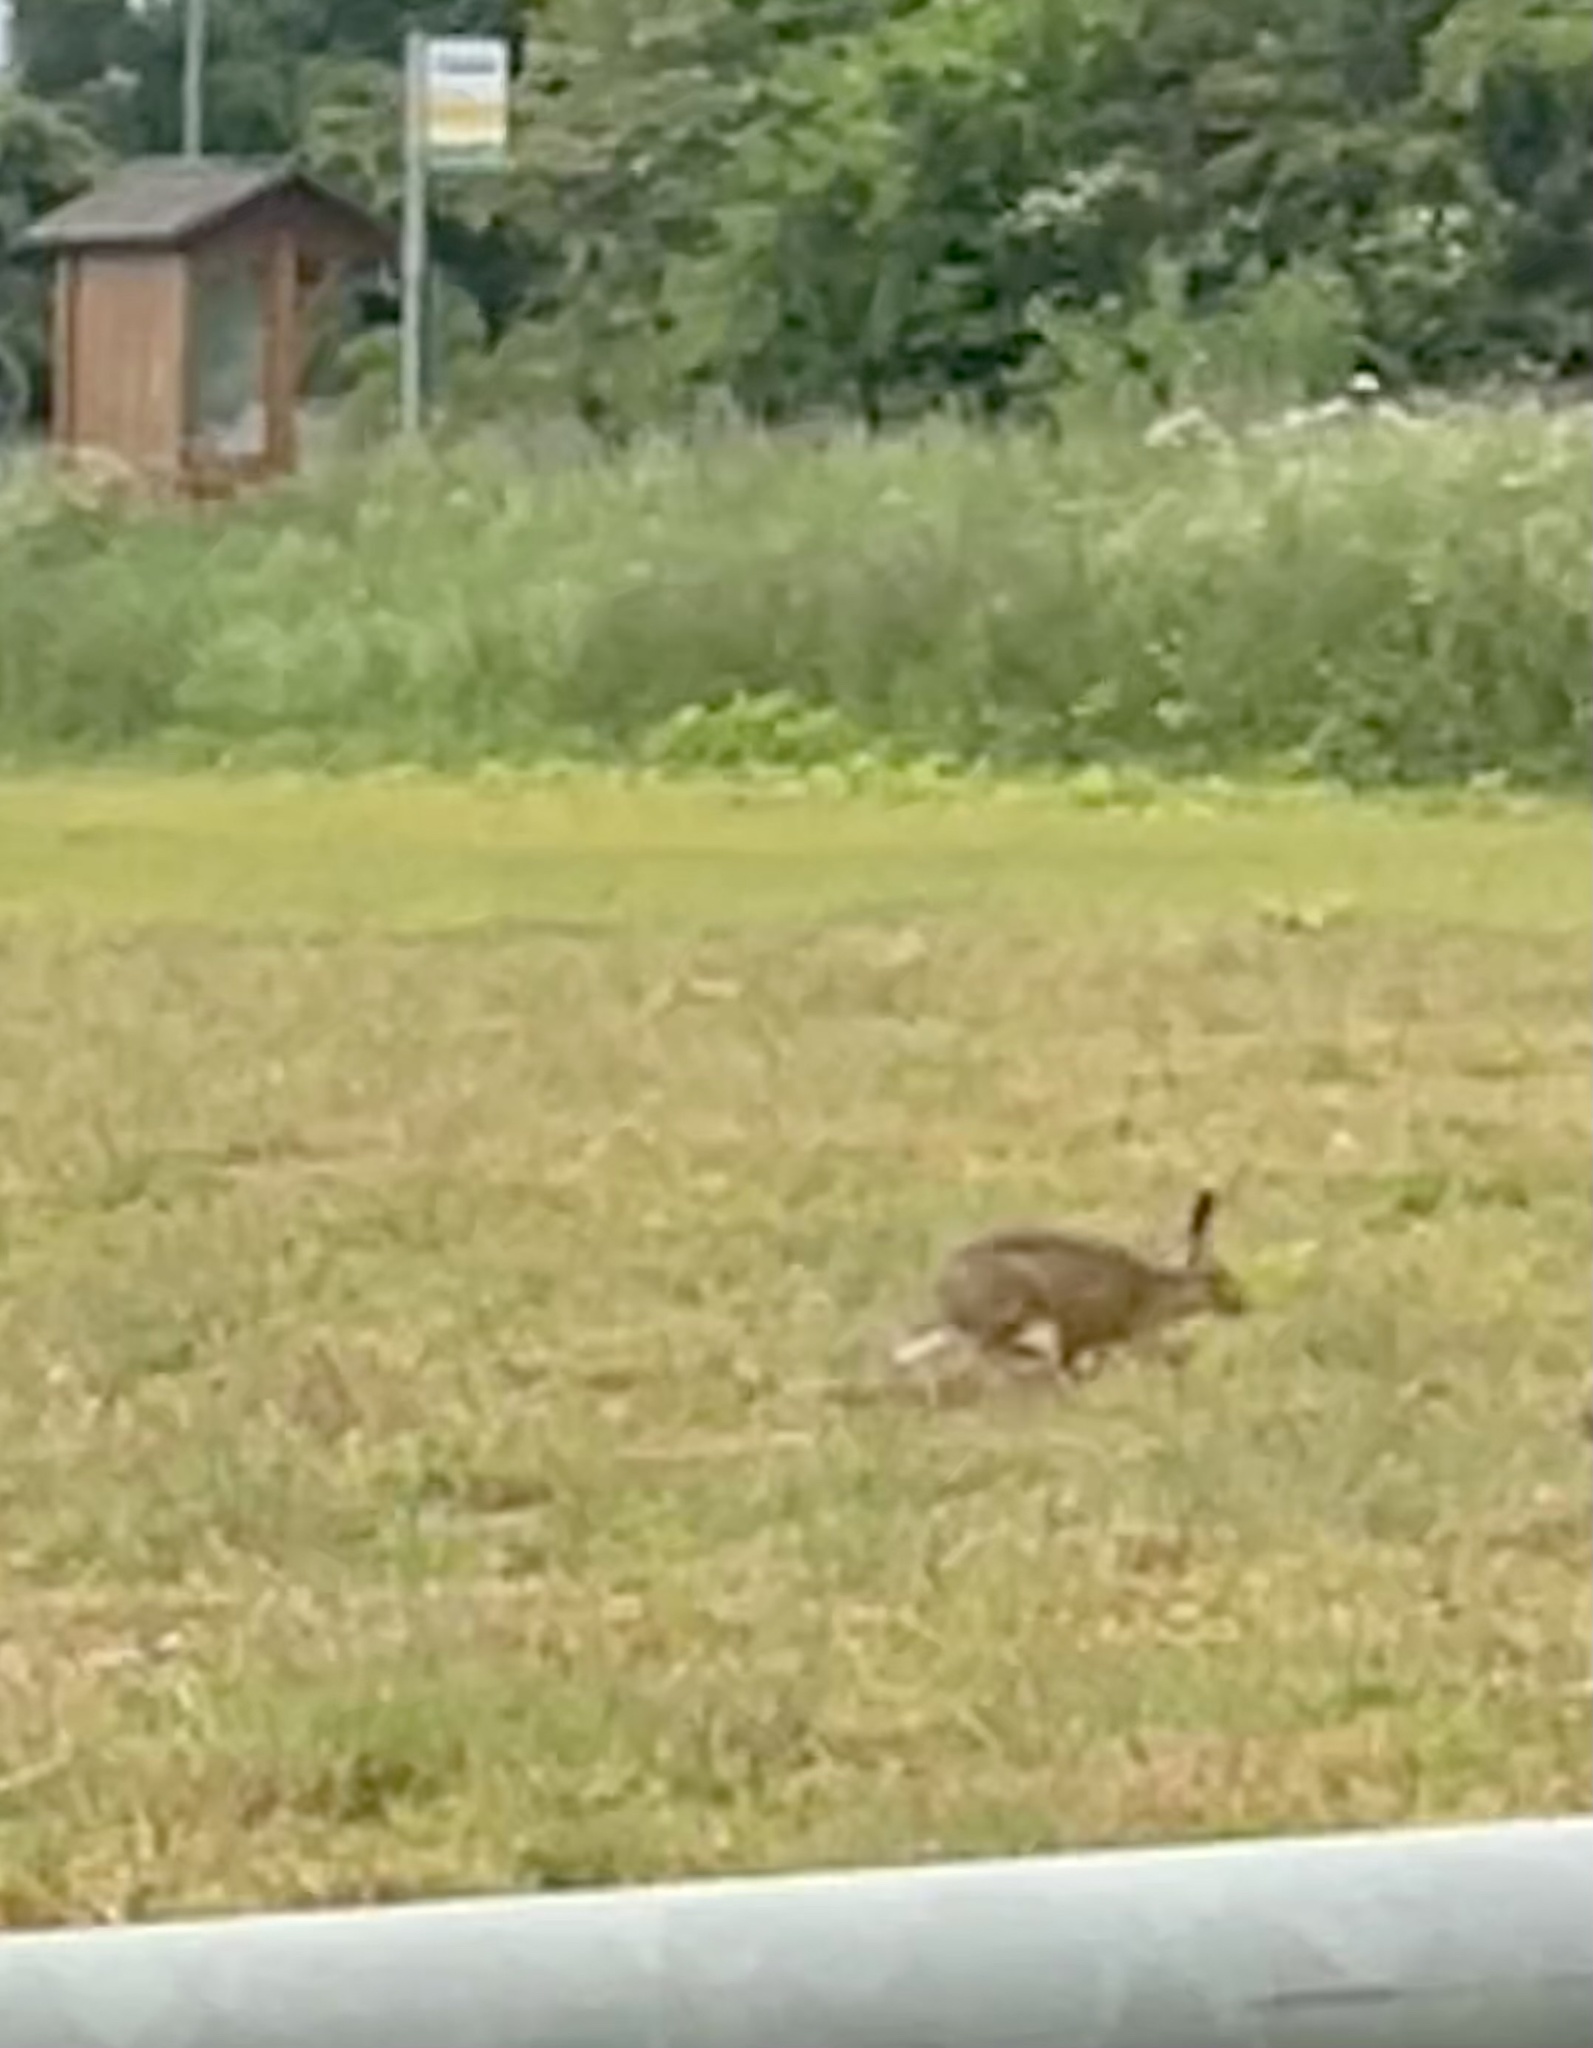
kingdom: Animalia
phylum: Chordata
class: Mammalia
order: Lagomorpha
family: Leporidae
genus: Lepus
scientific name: Lepus europaeus
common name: European hare
